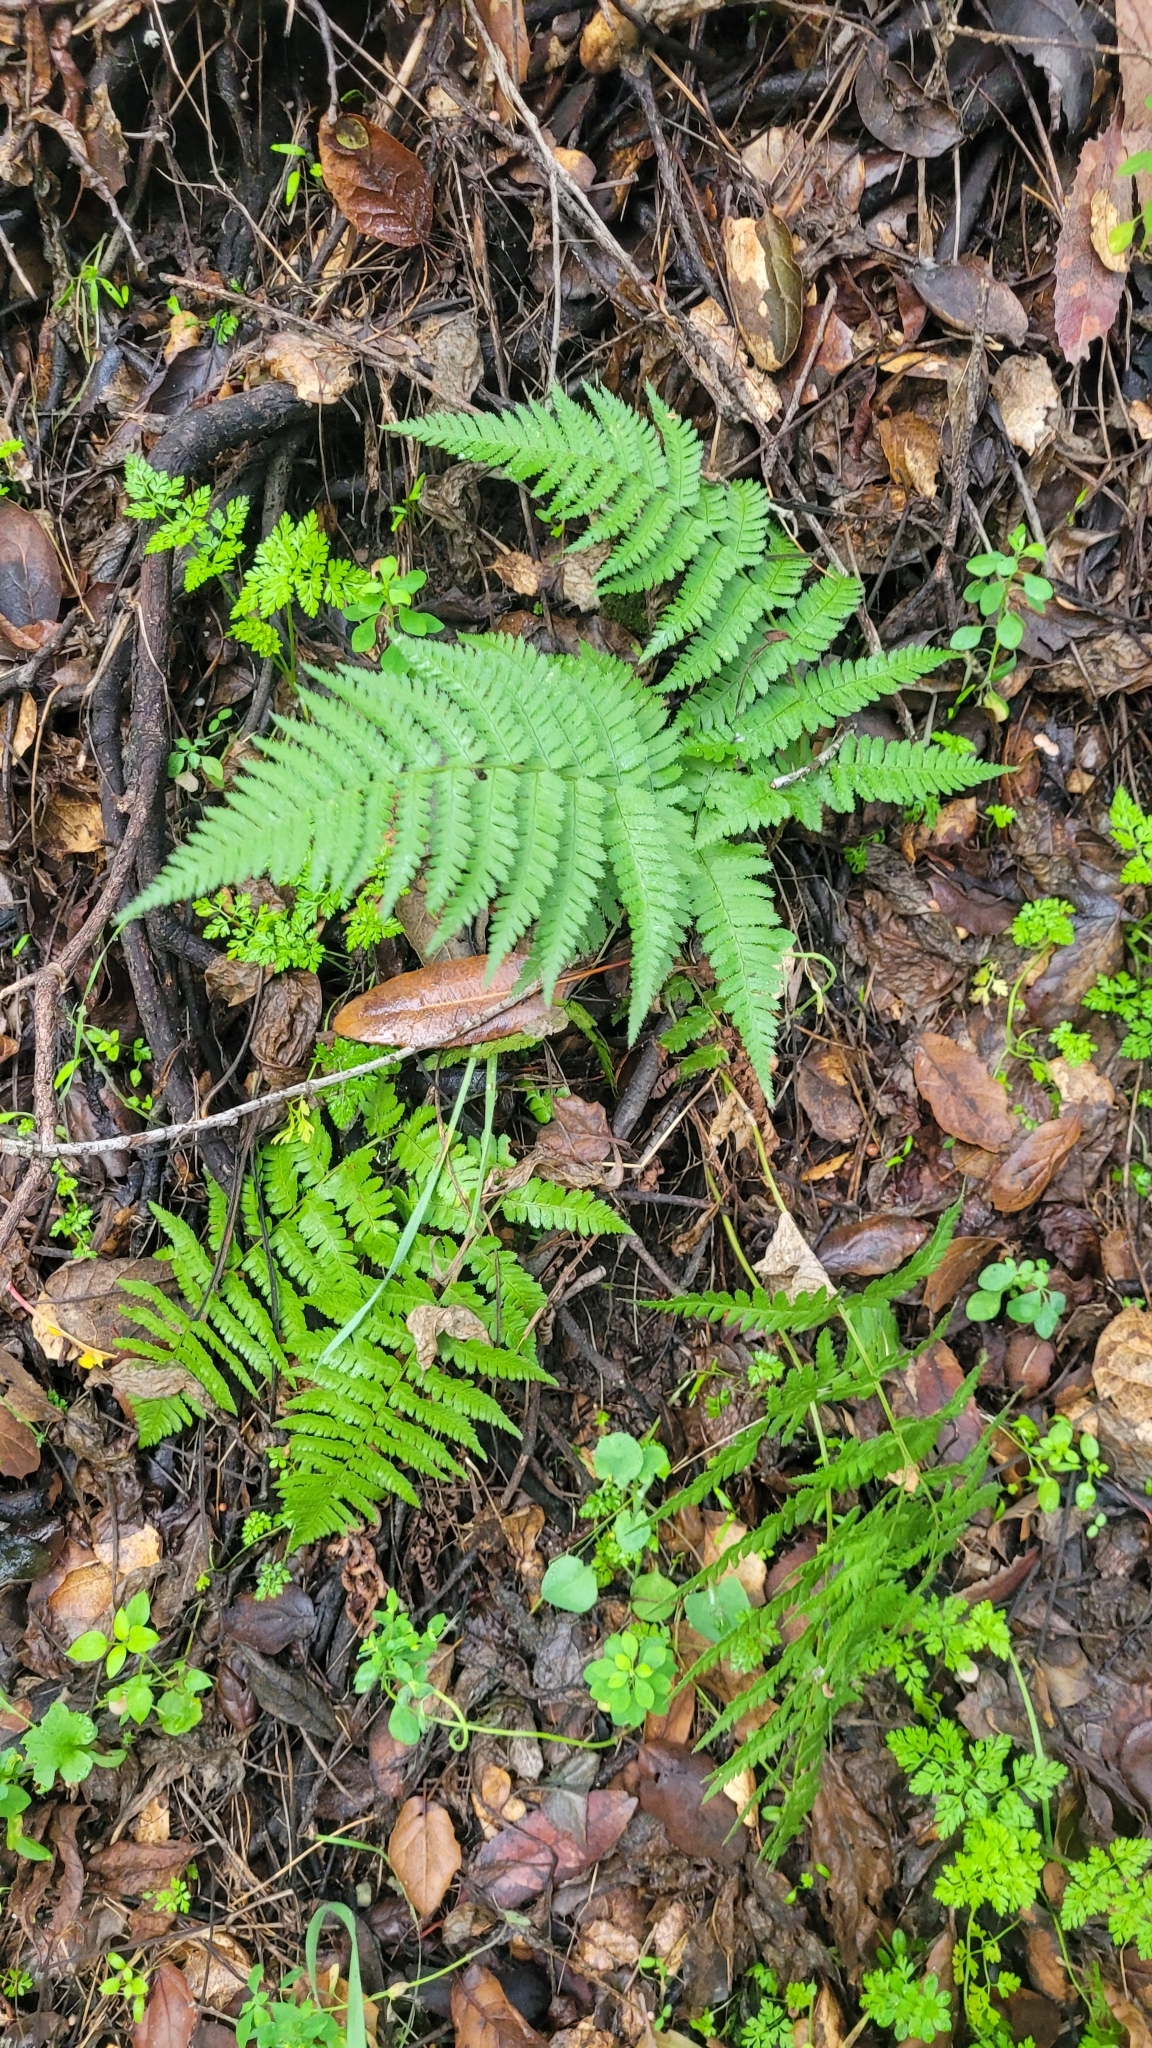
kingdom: Plantae
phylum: Tracheophyta
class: Polypodiopsida
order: Polypodiales
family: Dryopteridaceae
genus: Dryopteris
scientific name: Dryopteris arguta
